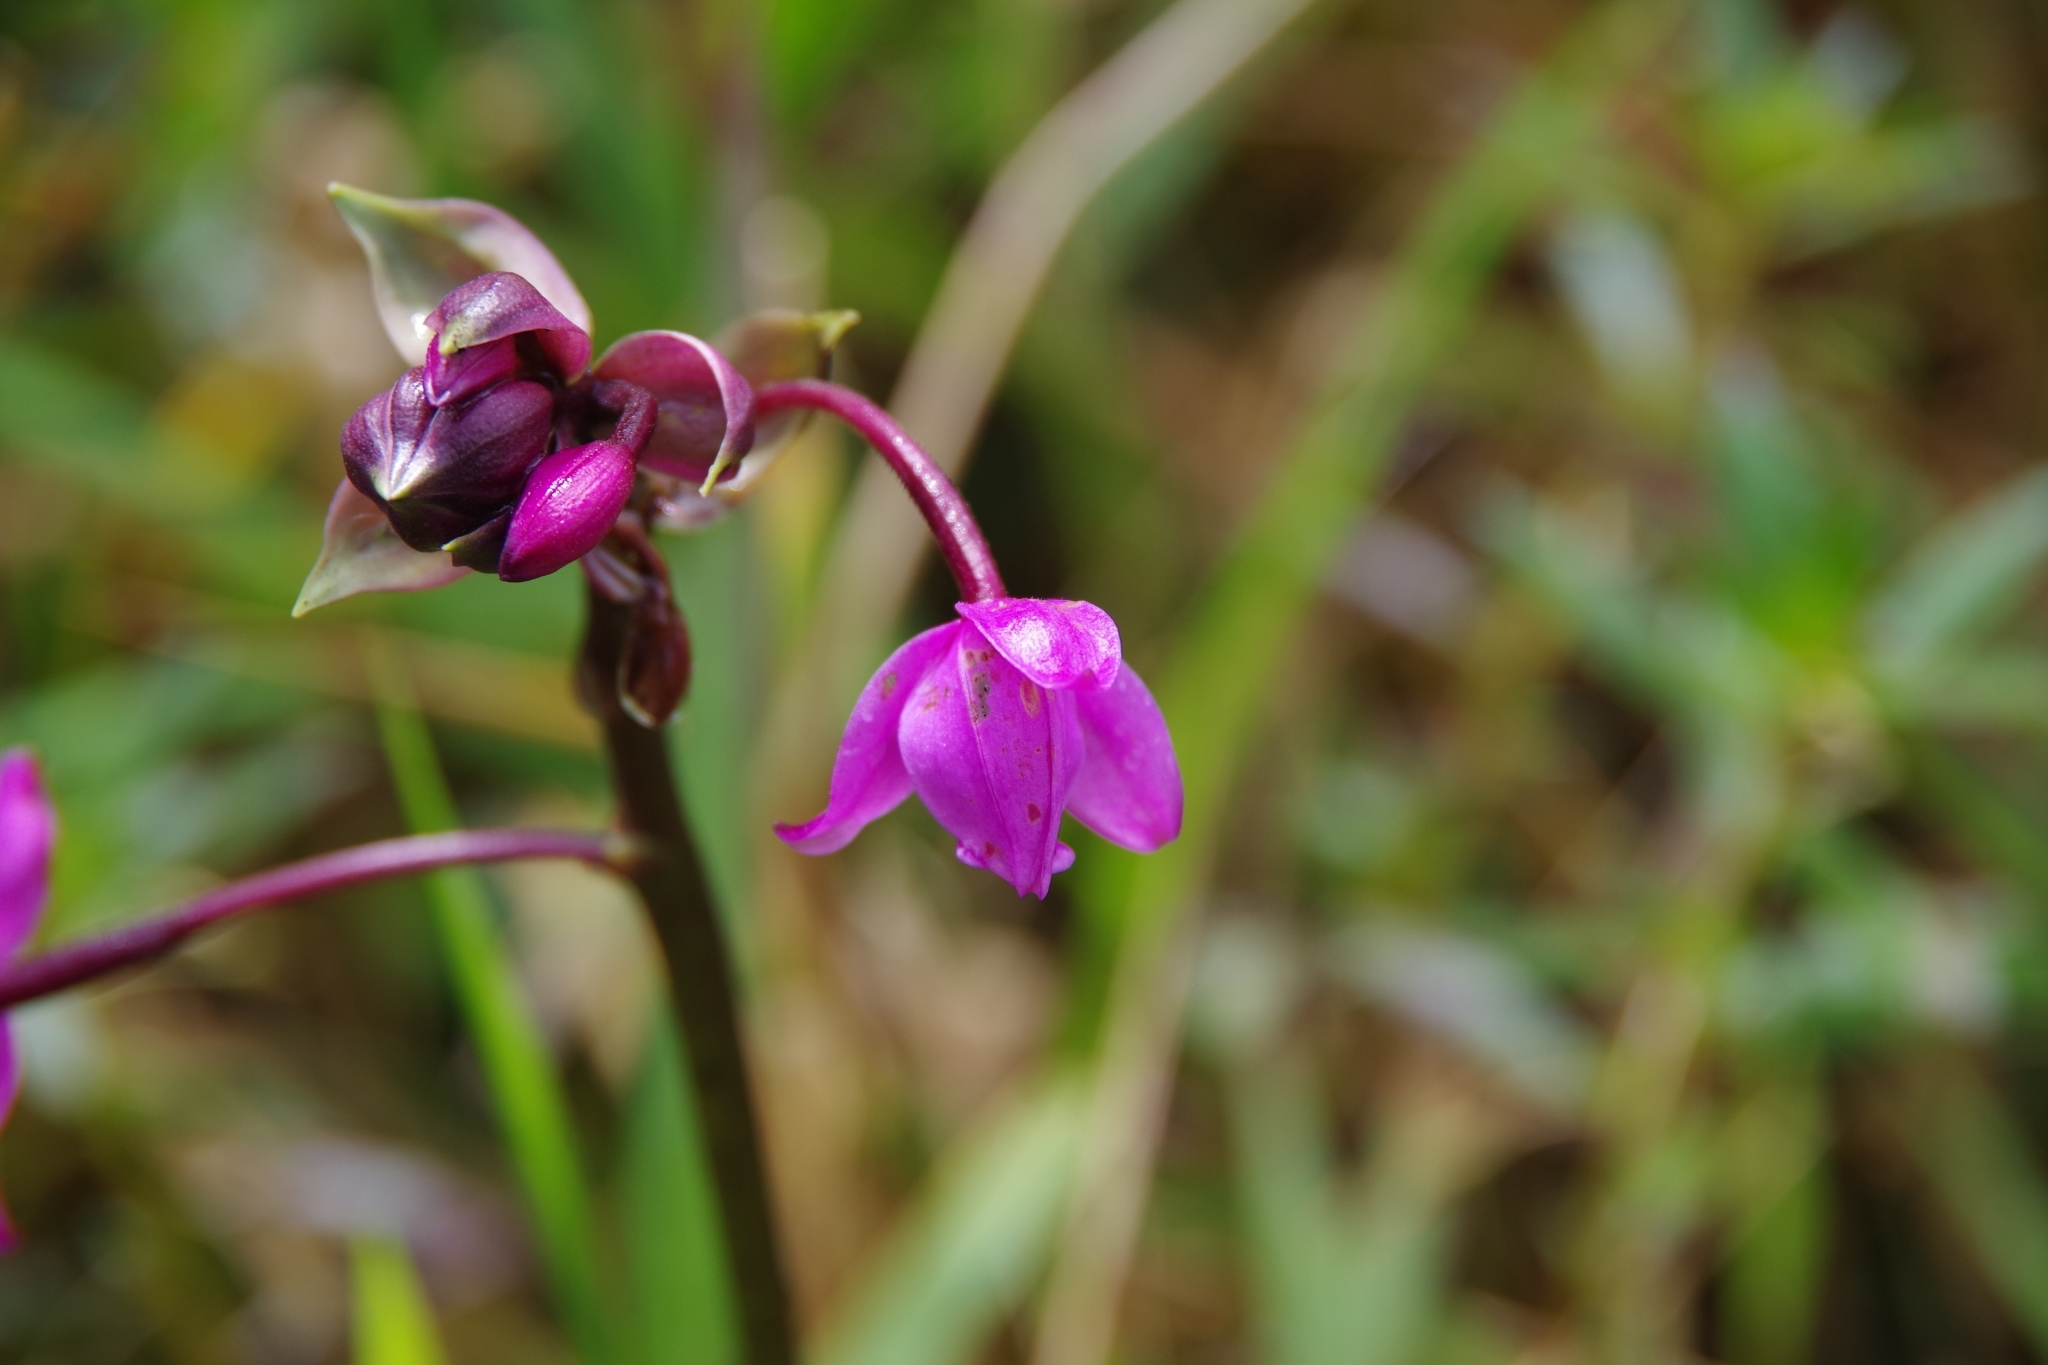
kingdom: Plantae
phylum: Tracheophyta
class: Liliopsida
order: Asparagales
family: Orchidaceae
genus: Spathoglottis
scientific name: Spathoglottis plicata
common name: Philippine ground orchid
